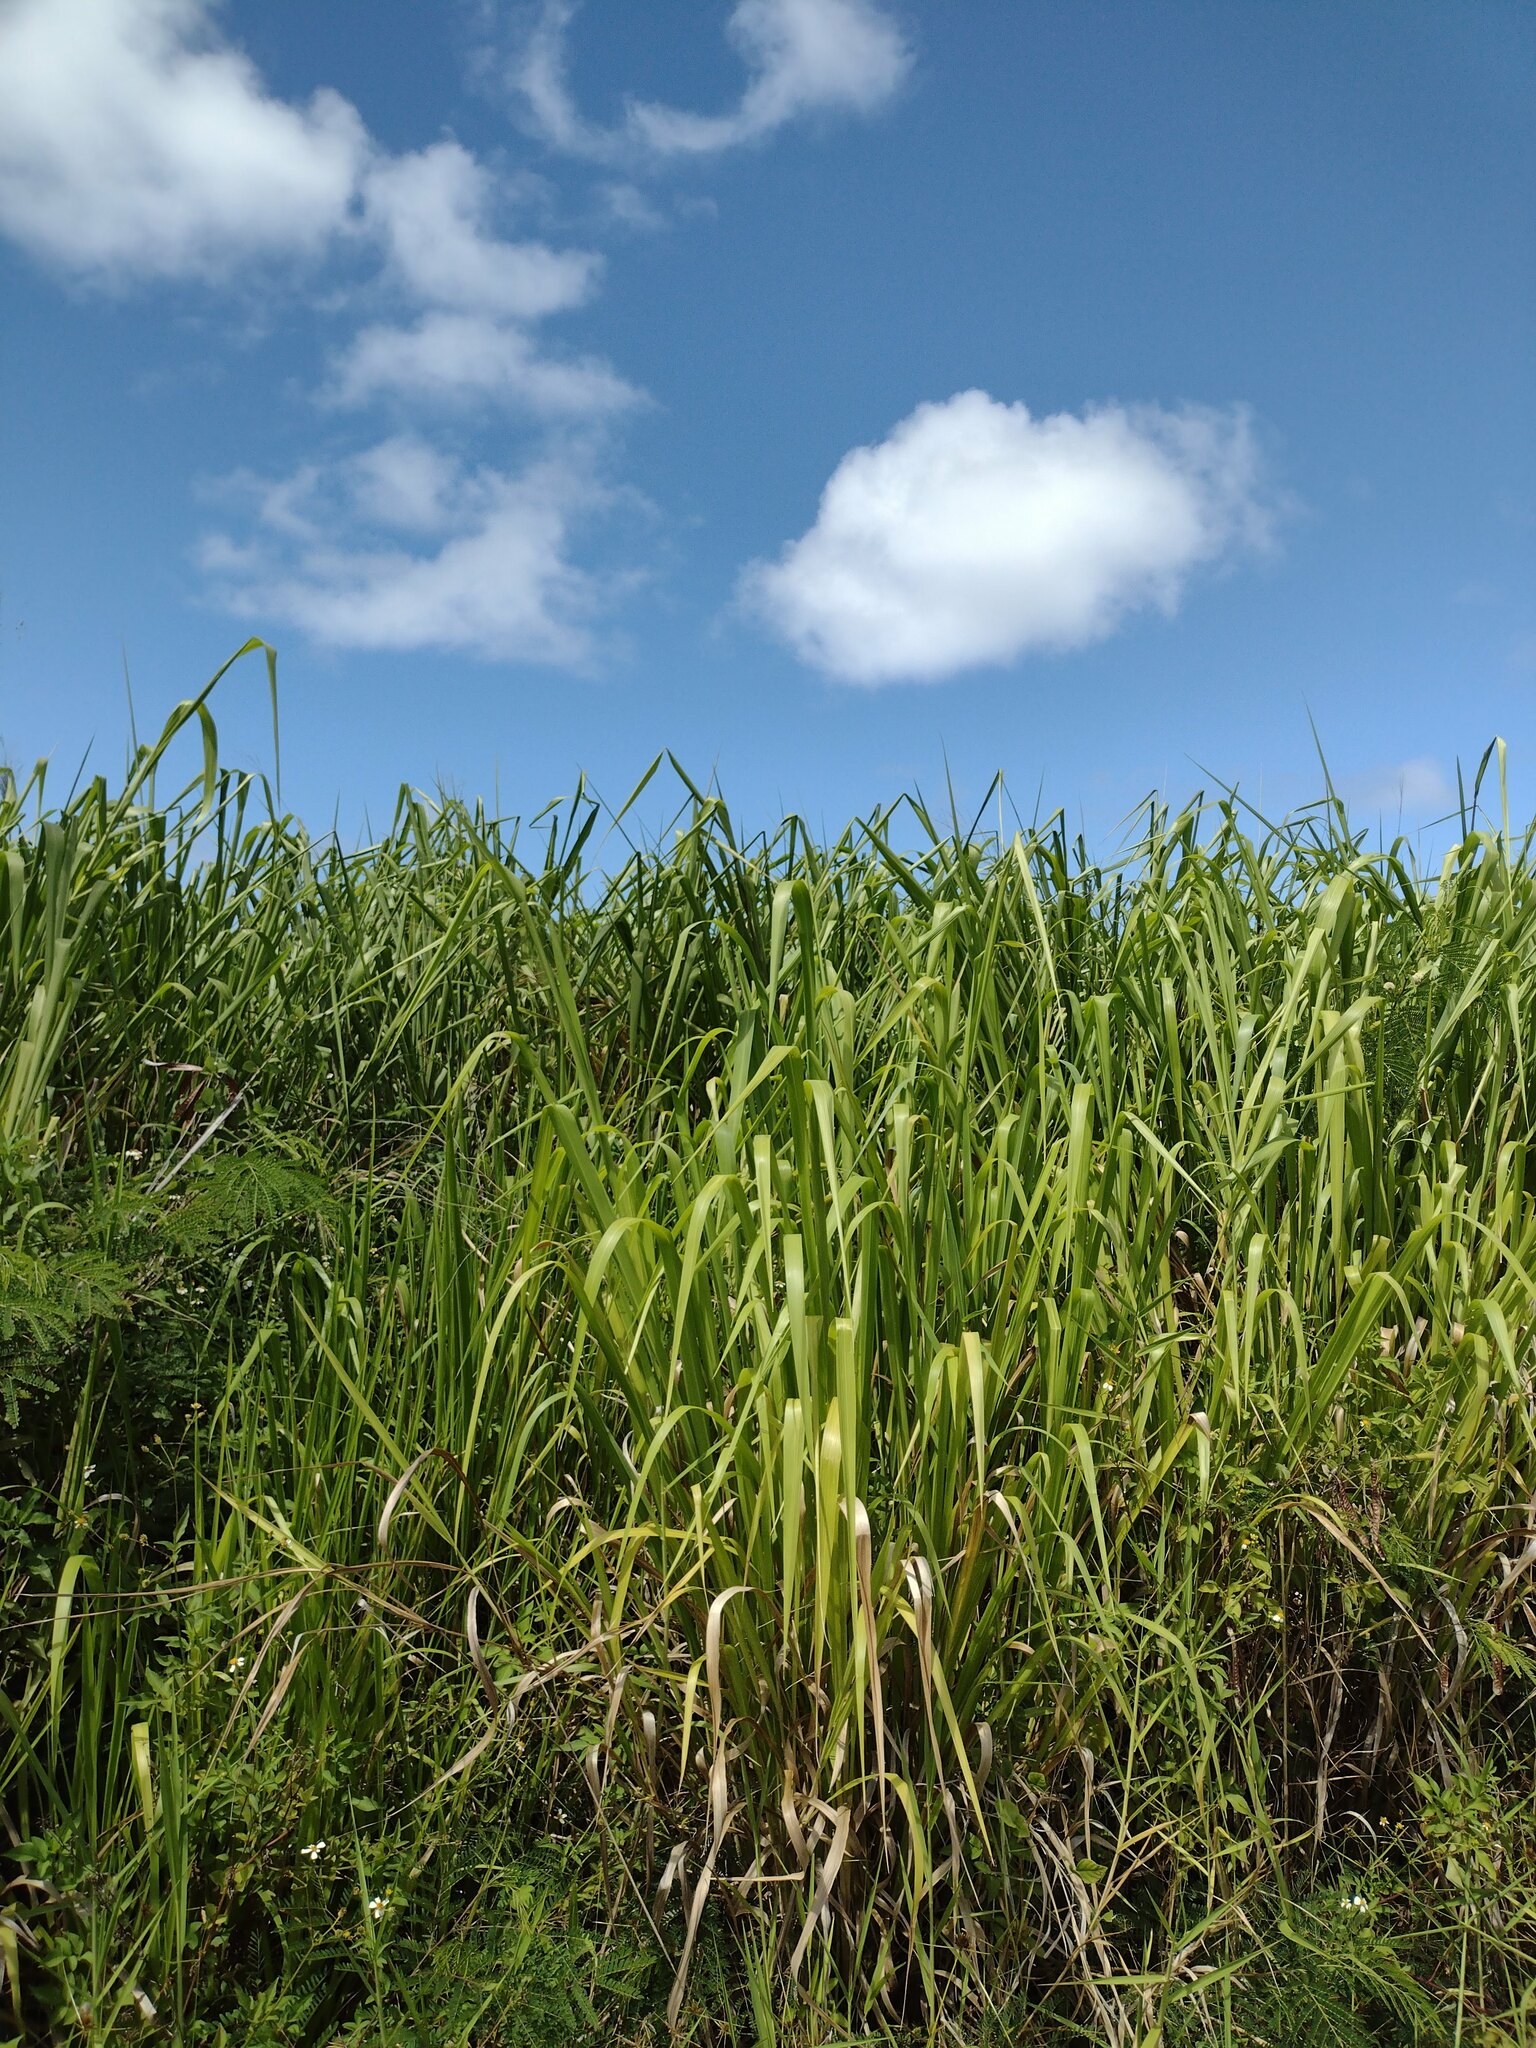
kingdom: Plantae
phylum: Tracheophyta
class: Liliopsida
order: Poales
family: Poaceae
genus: Megathyrsus
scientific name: Megathyrsus maximus
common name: Guineagrass
